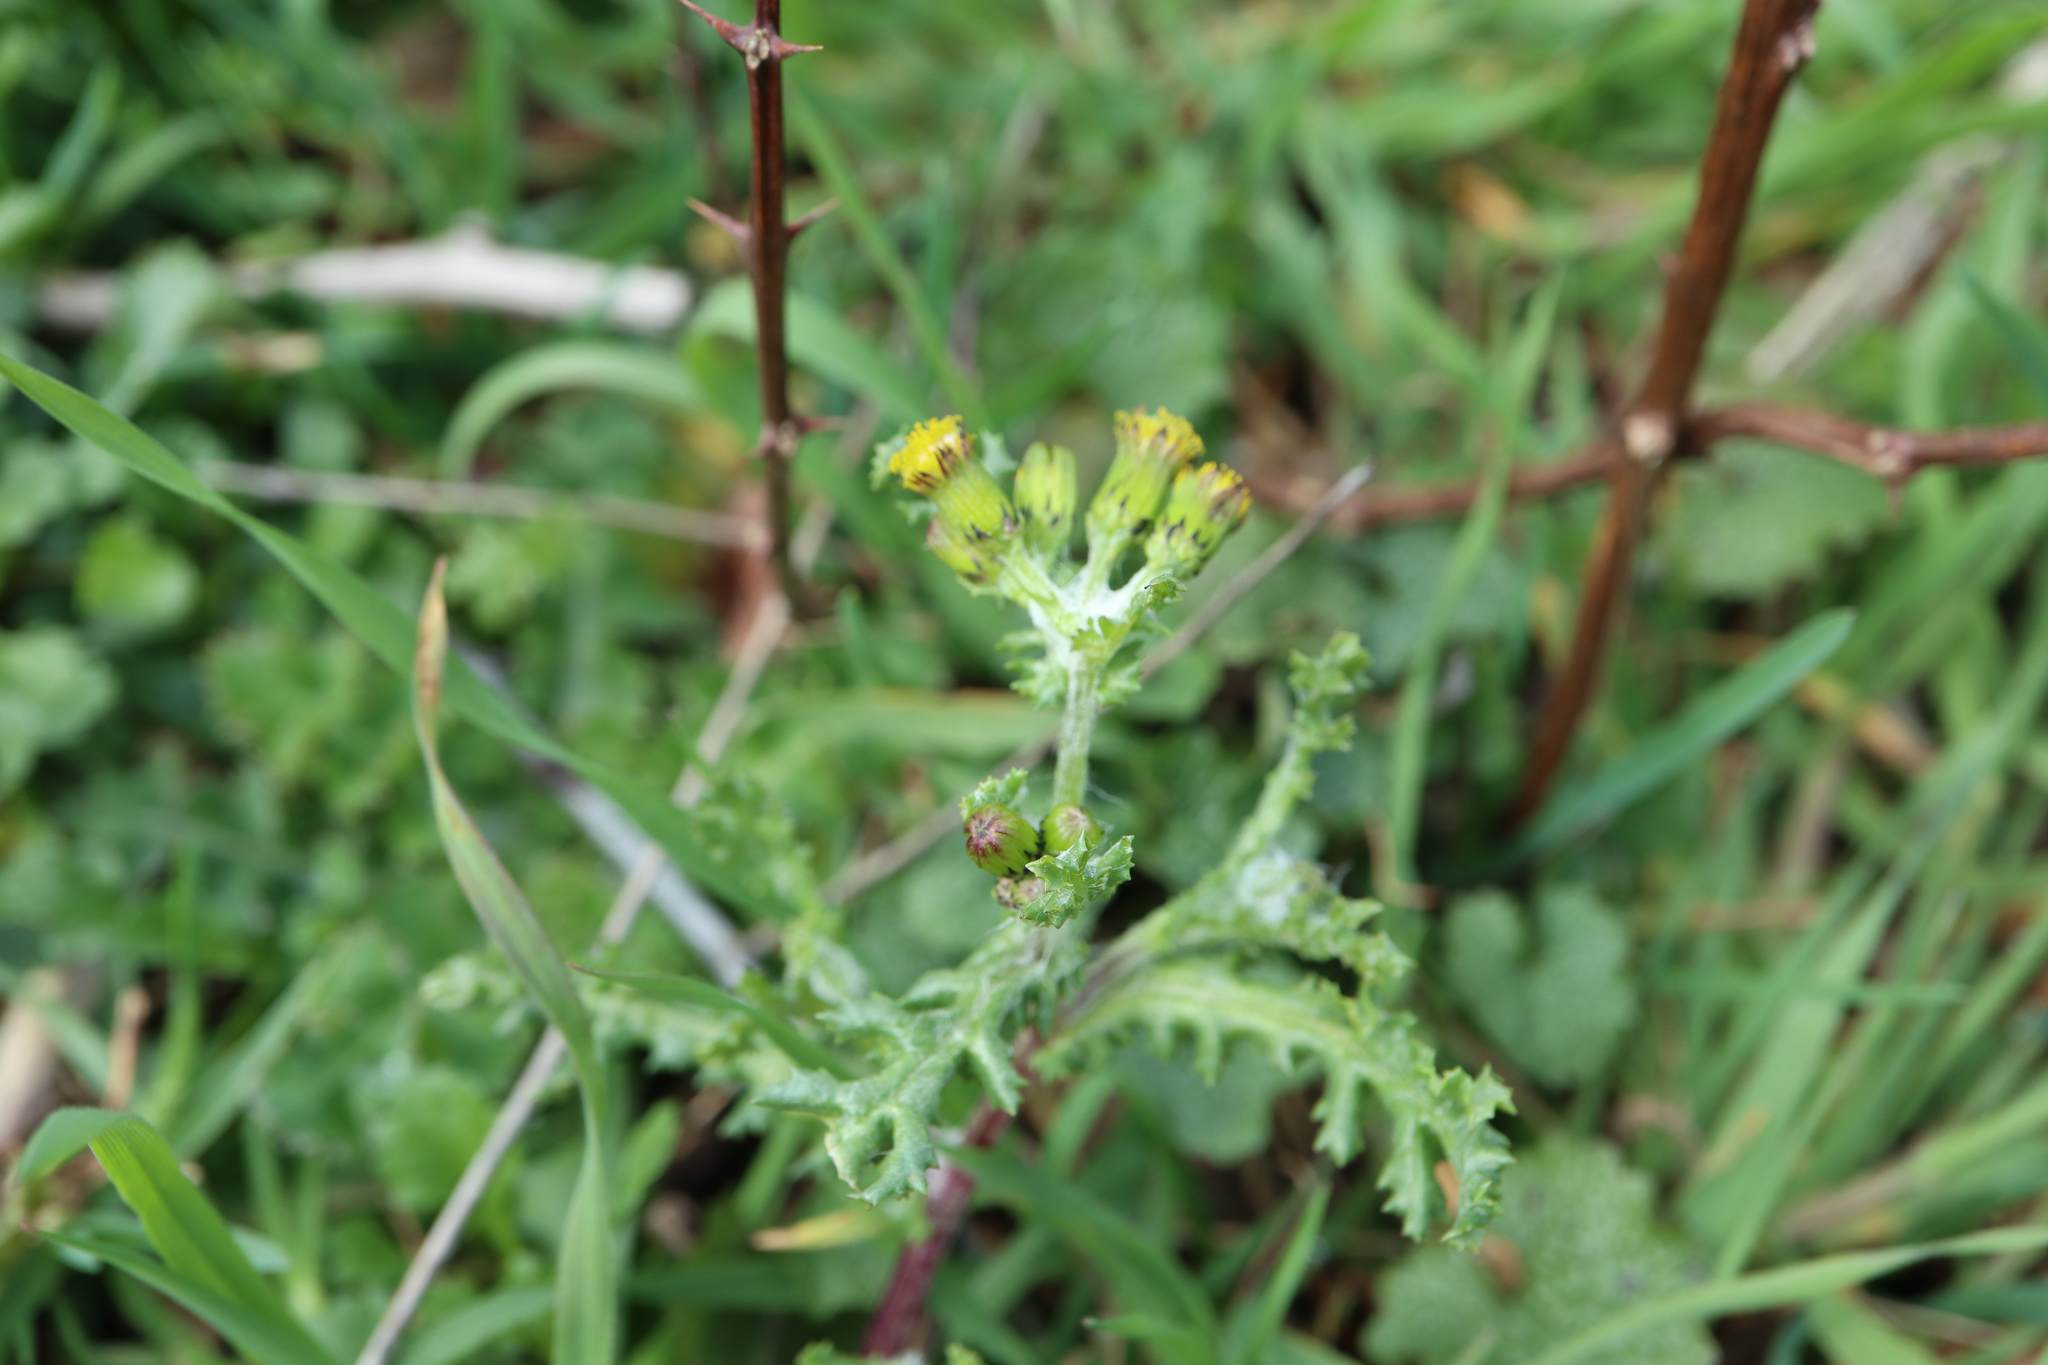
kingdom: Plantae
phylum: Tracheophyta
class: Magnoliopsida
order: Asterales
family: Asteraceae
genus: Senecio
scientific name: Senecio vulgaris
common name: Old-man-in-the-spring
